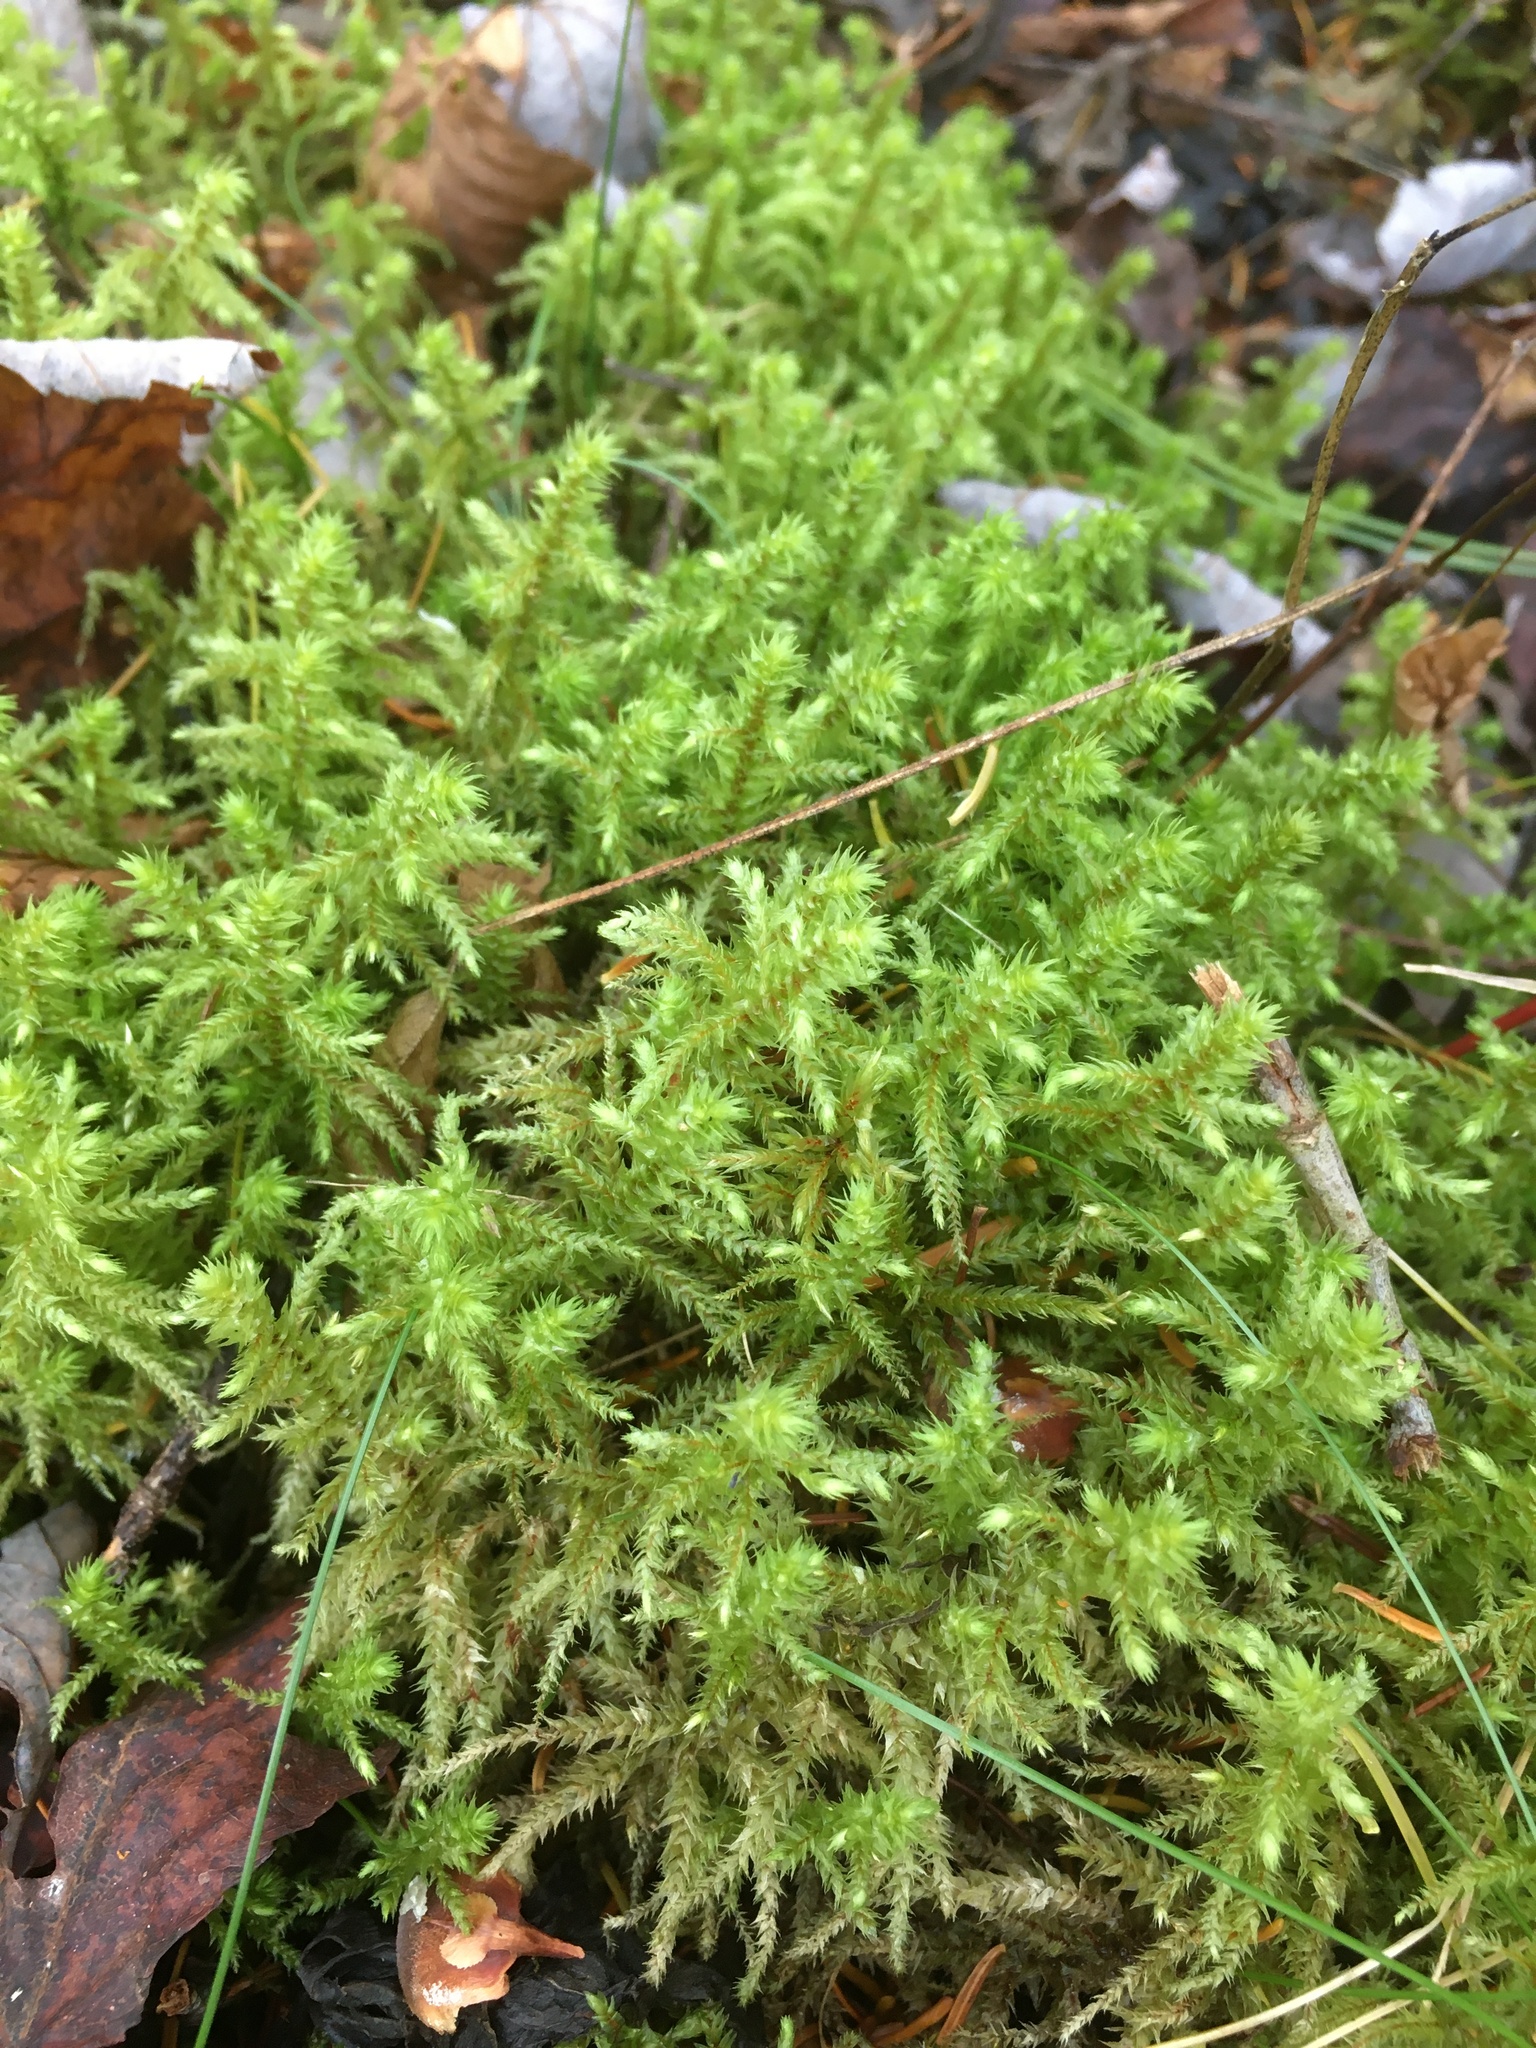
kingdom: Plantae
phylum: Bryophyta
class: Bryopsida
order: Hypnales
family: Hylocomiaceae
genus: Hylocomiadelphus
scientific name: Hylocomiadelphus triquetrus
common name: Rough goose neck moss
